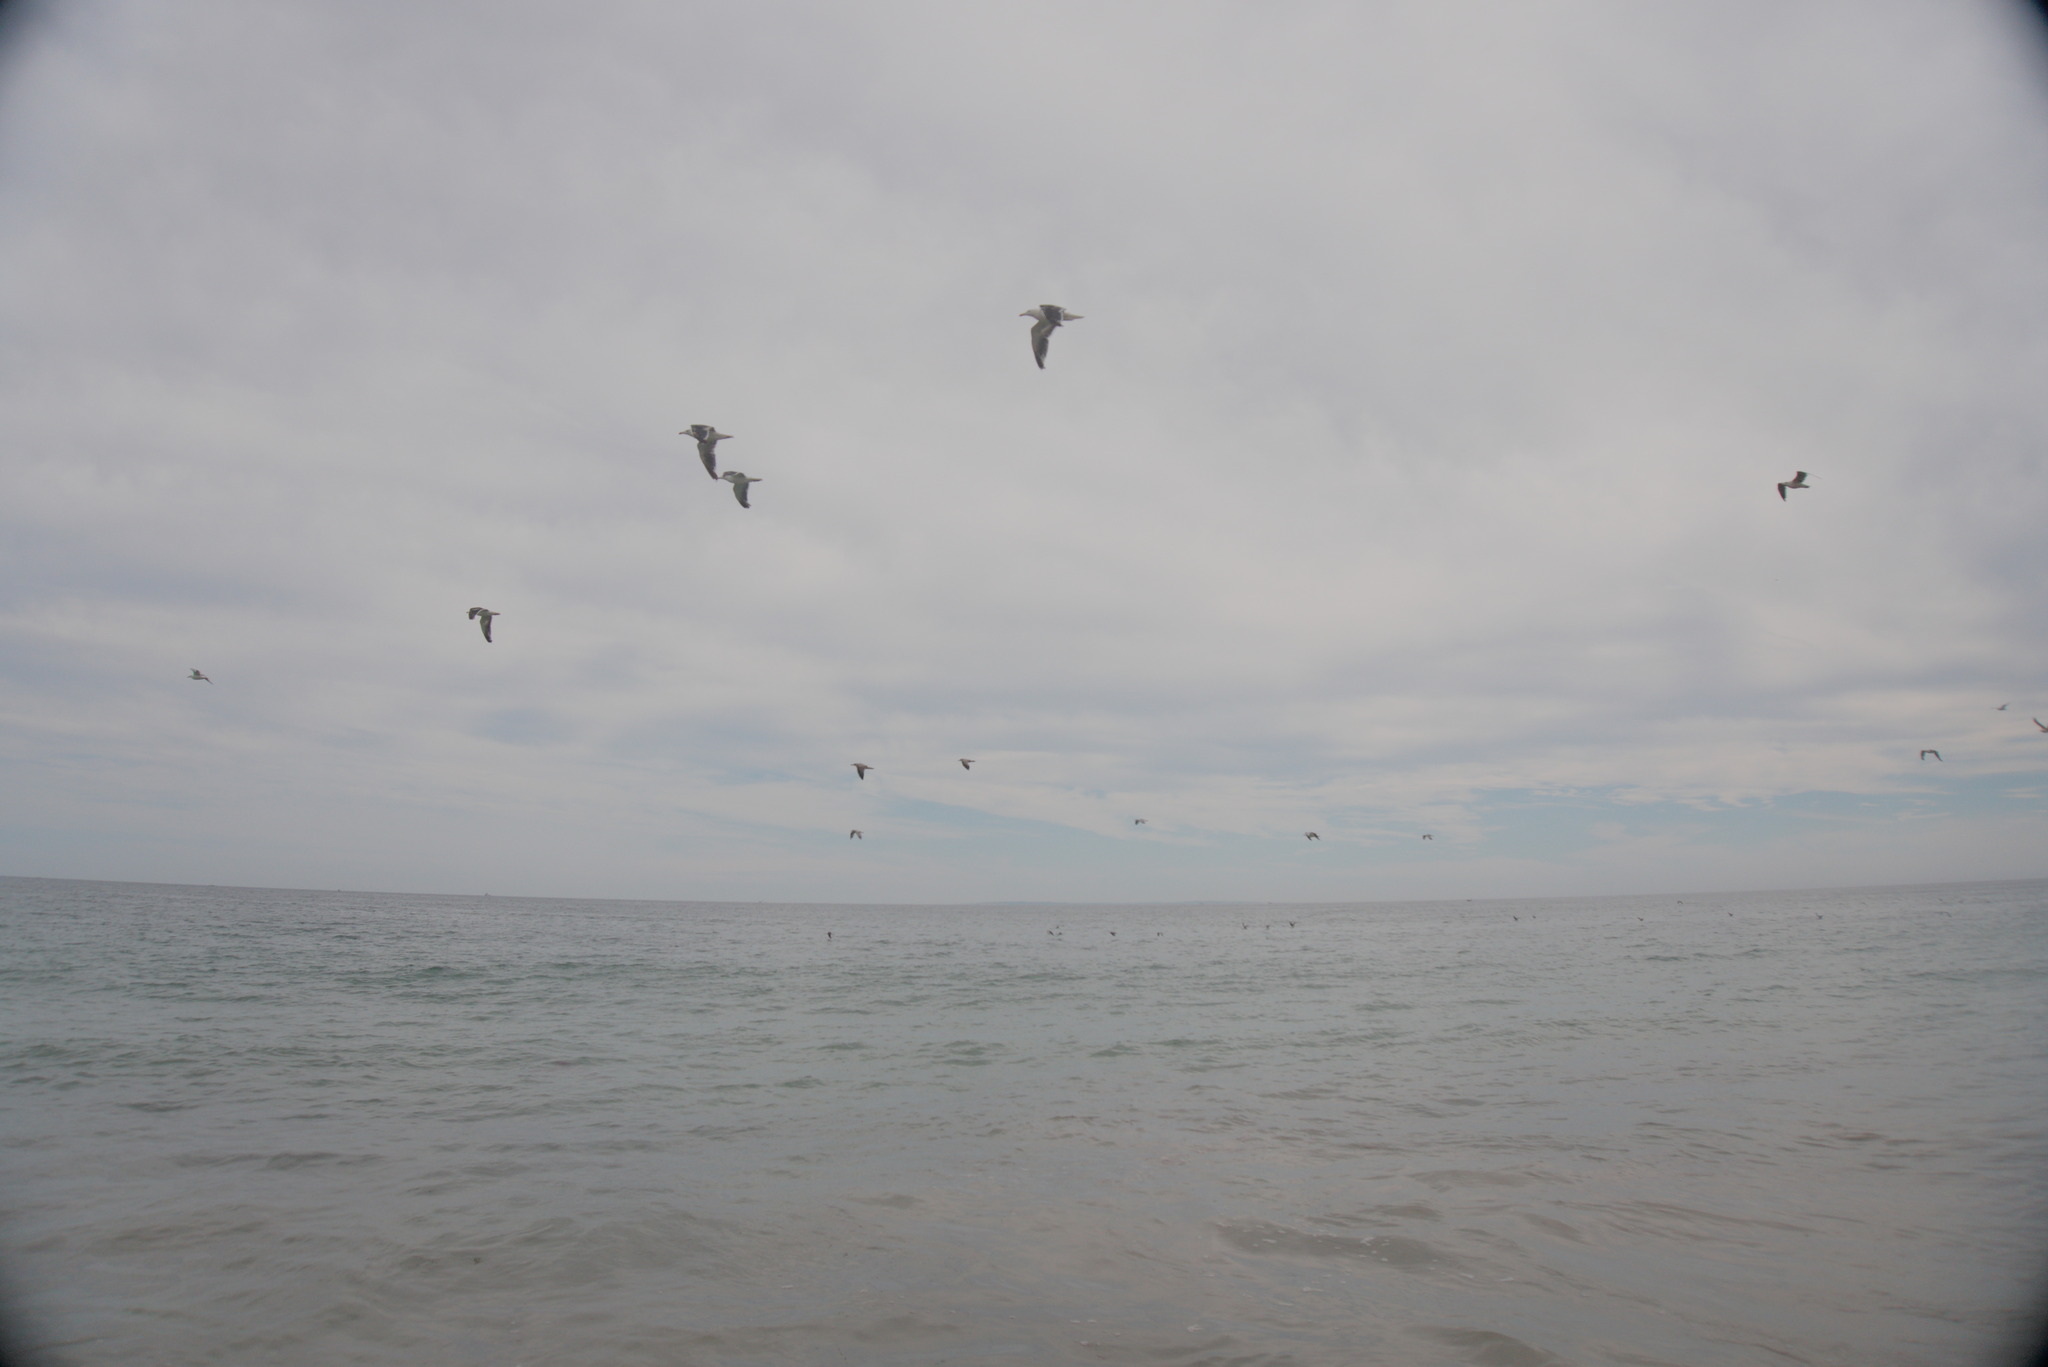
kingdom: Animalia
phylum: Chordata
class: Aves
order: Charadriiformes
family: Laridae
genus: Larus
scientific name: Larus marinus
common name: Great black-backed gull
